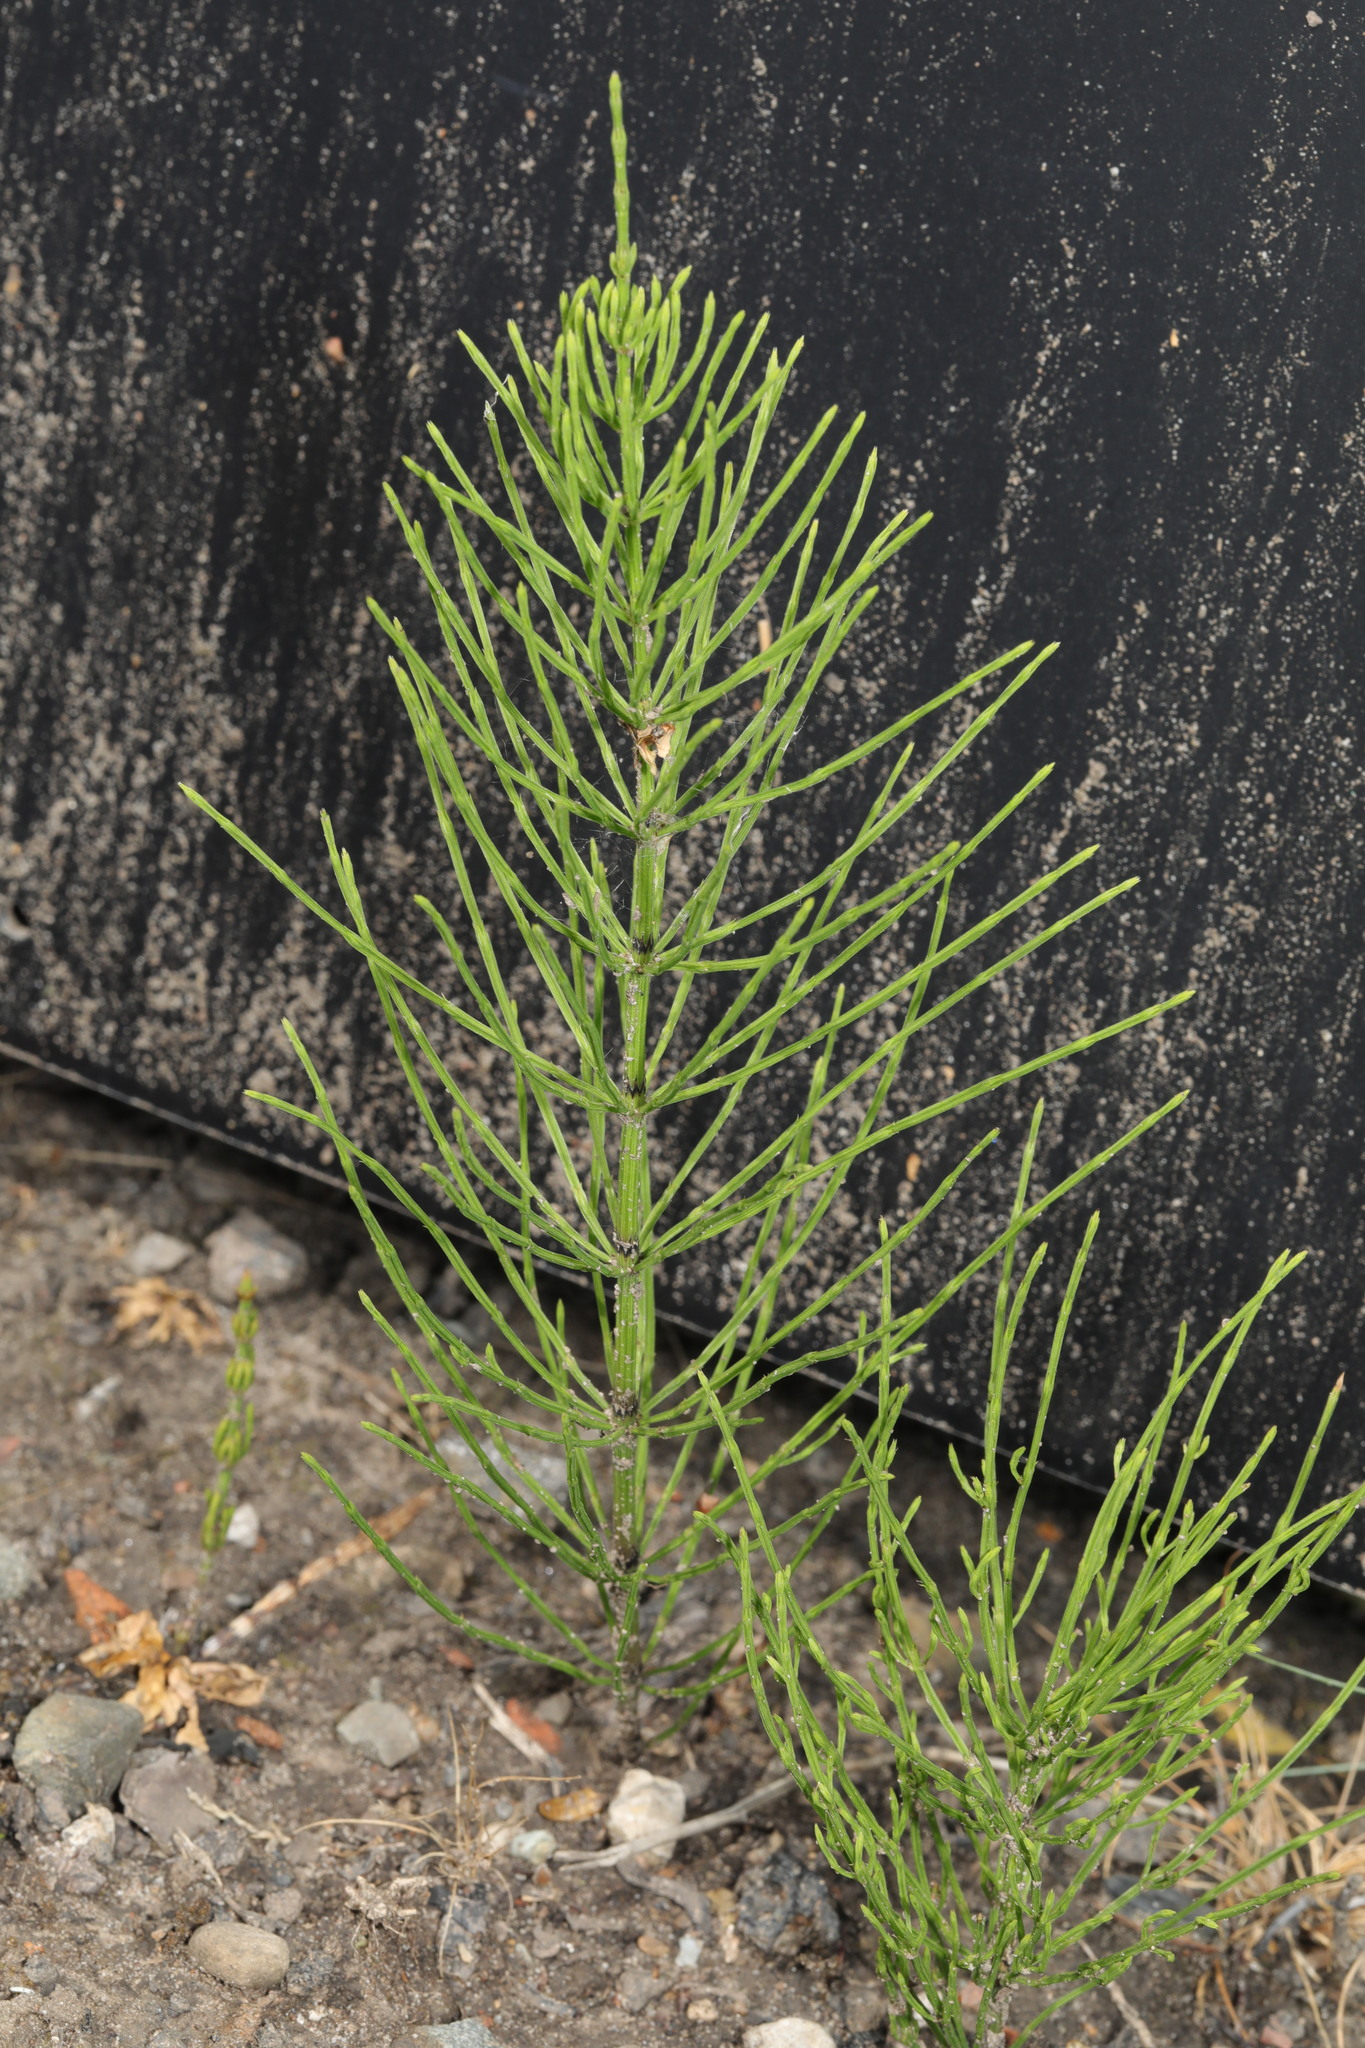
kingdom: Plantae
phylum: Tracheophyta
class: Polypodiopsida
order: Equisetales
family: Equisetaceae
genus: Equisetum
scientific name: Equisetum arvense
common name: Field horsetail
